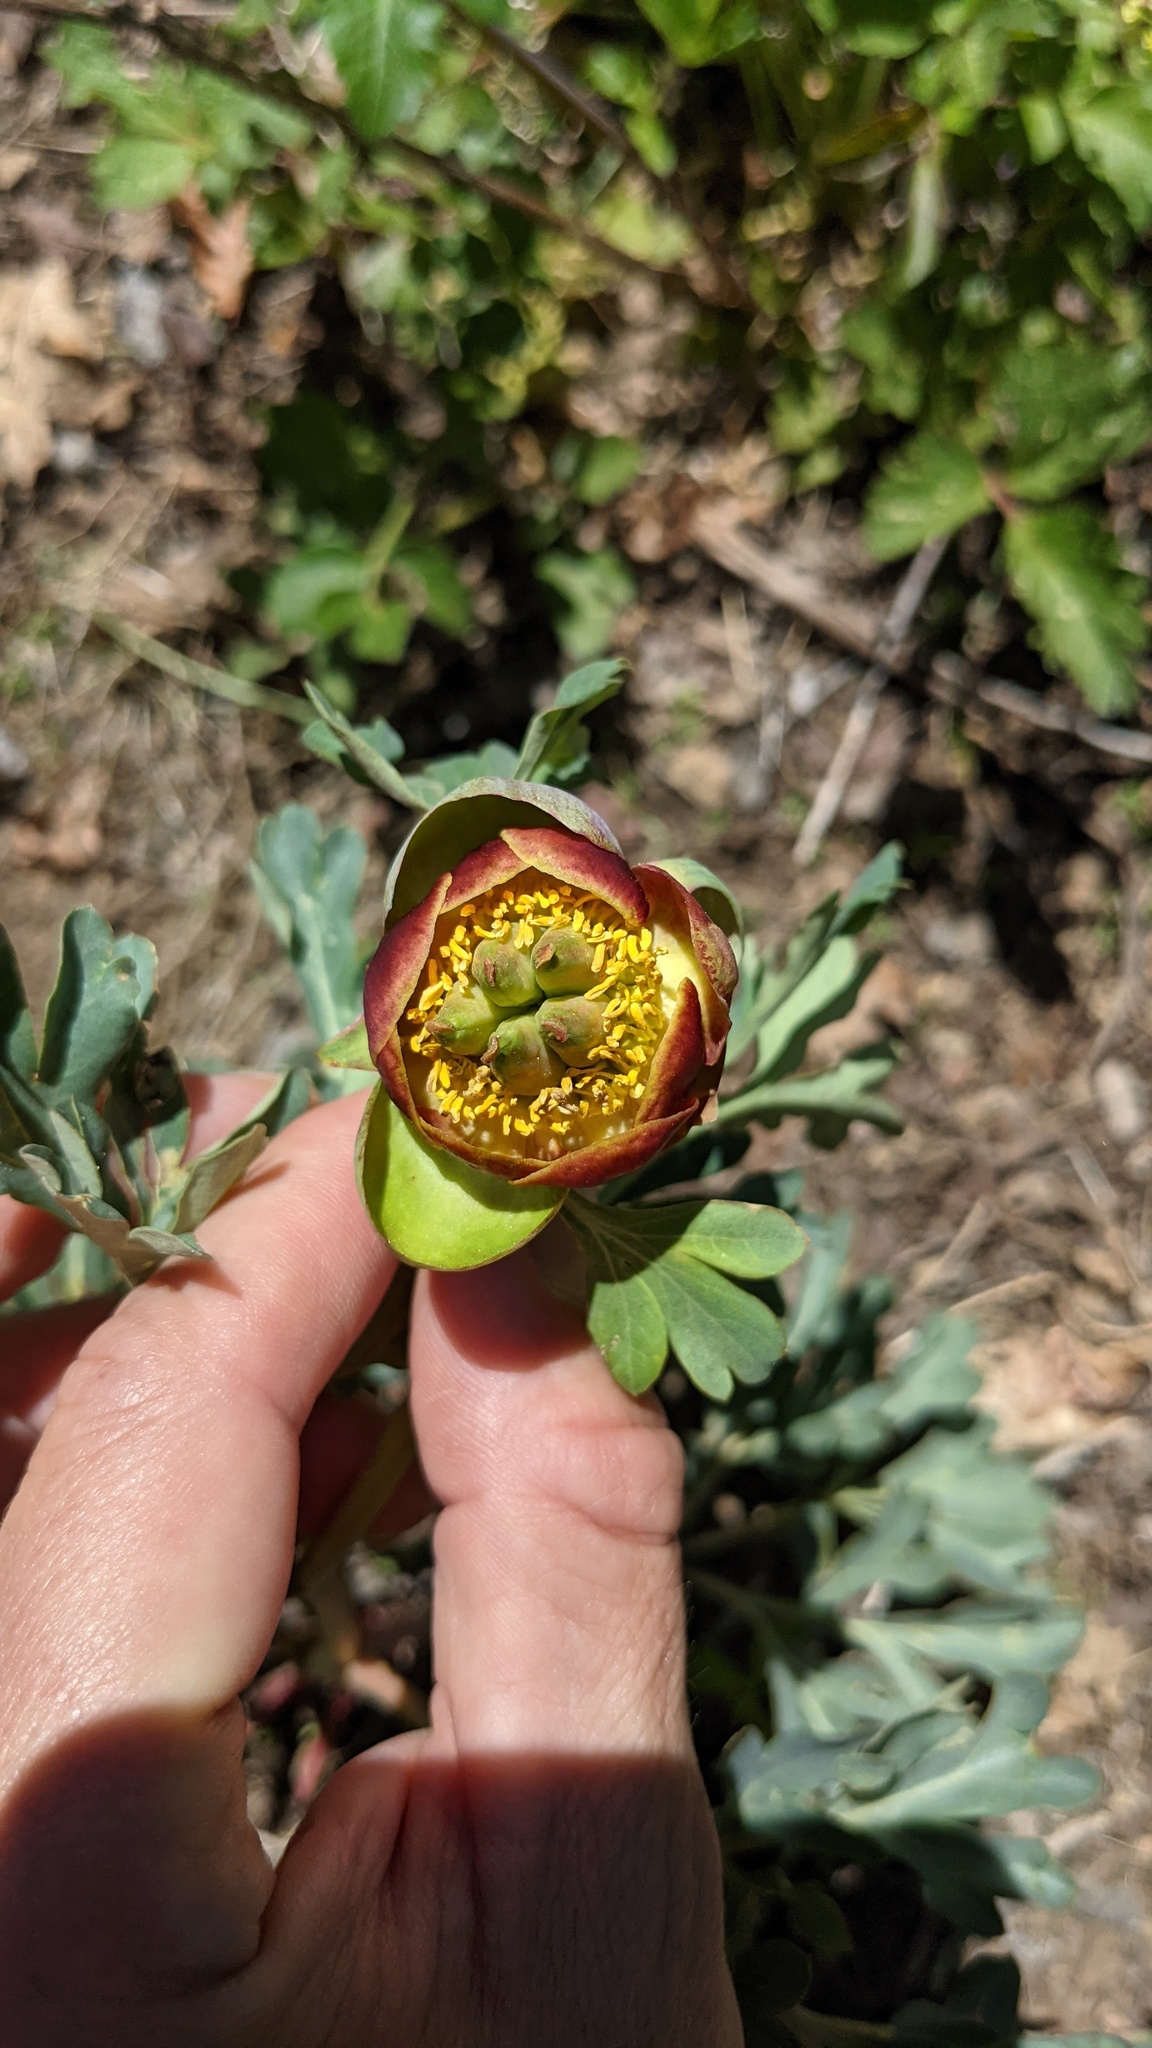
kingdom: Plantae
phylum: Tracheophyta
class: Magnoliopsida
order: Saxifragales
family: Paeoniaceae
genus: Paeonia
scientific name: Paeonia brownii
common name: Brown's peony
